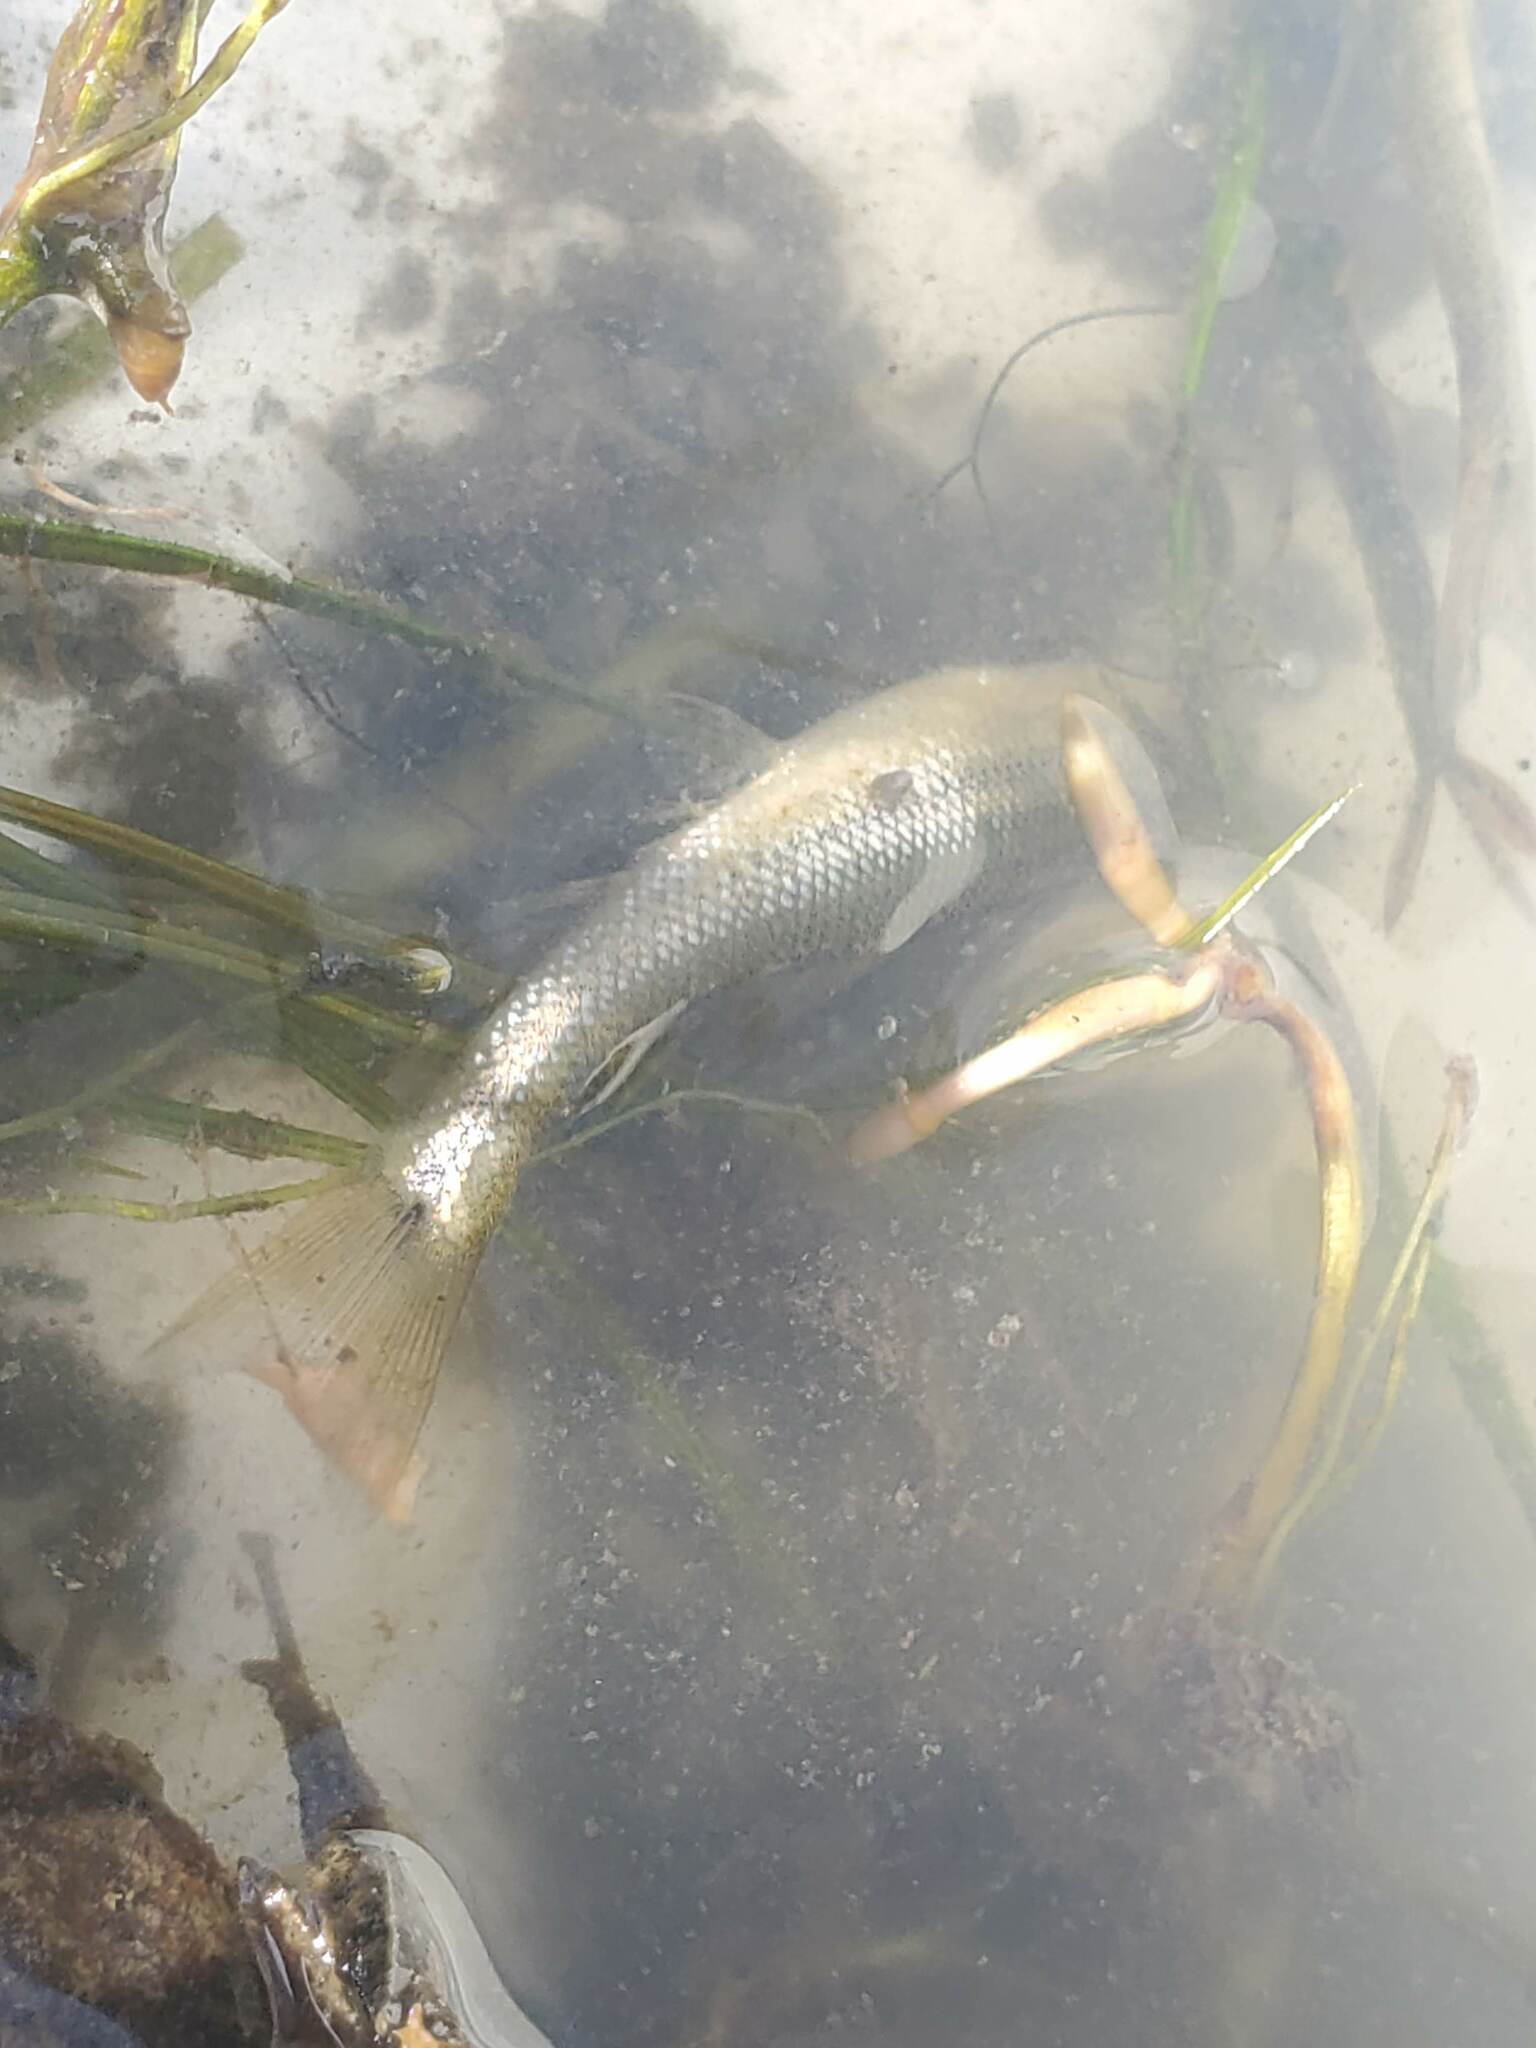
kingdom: Animalia
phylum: Chordata
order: Cypriniformes
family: Cyprinidae
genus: Notropis
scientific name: Notropis
